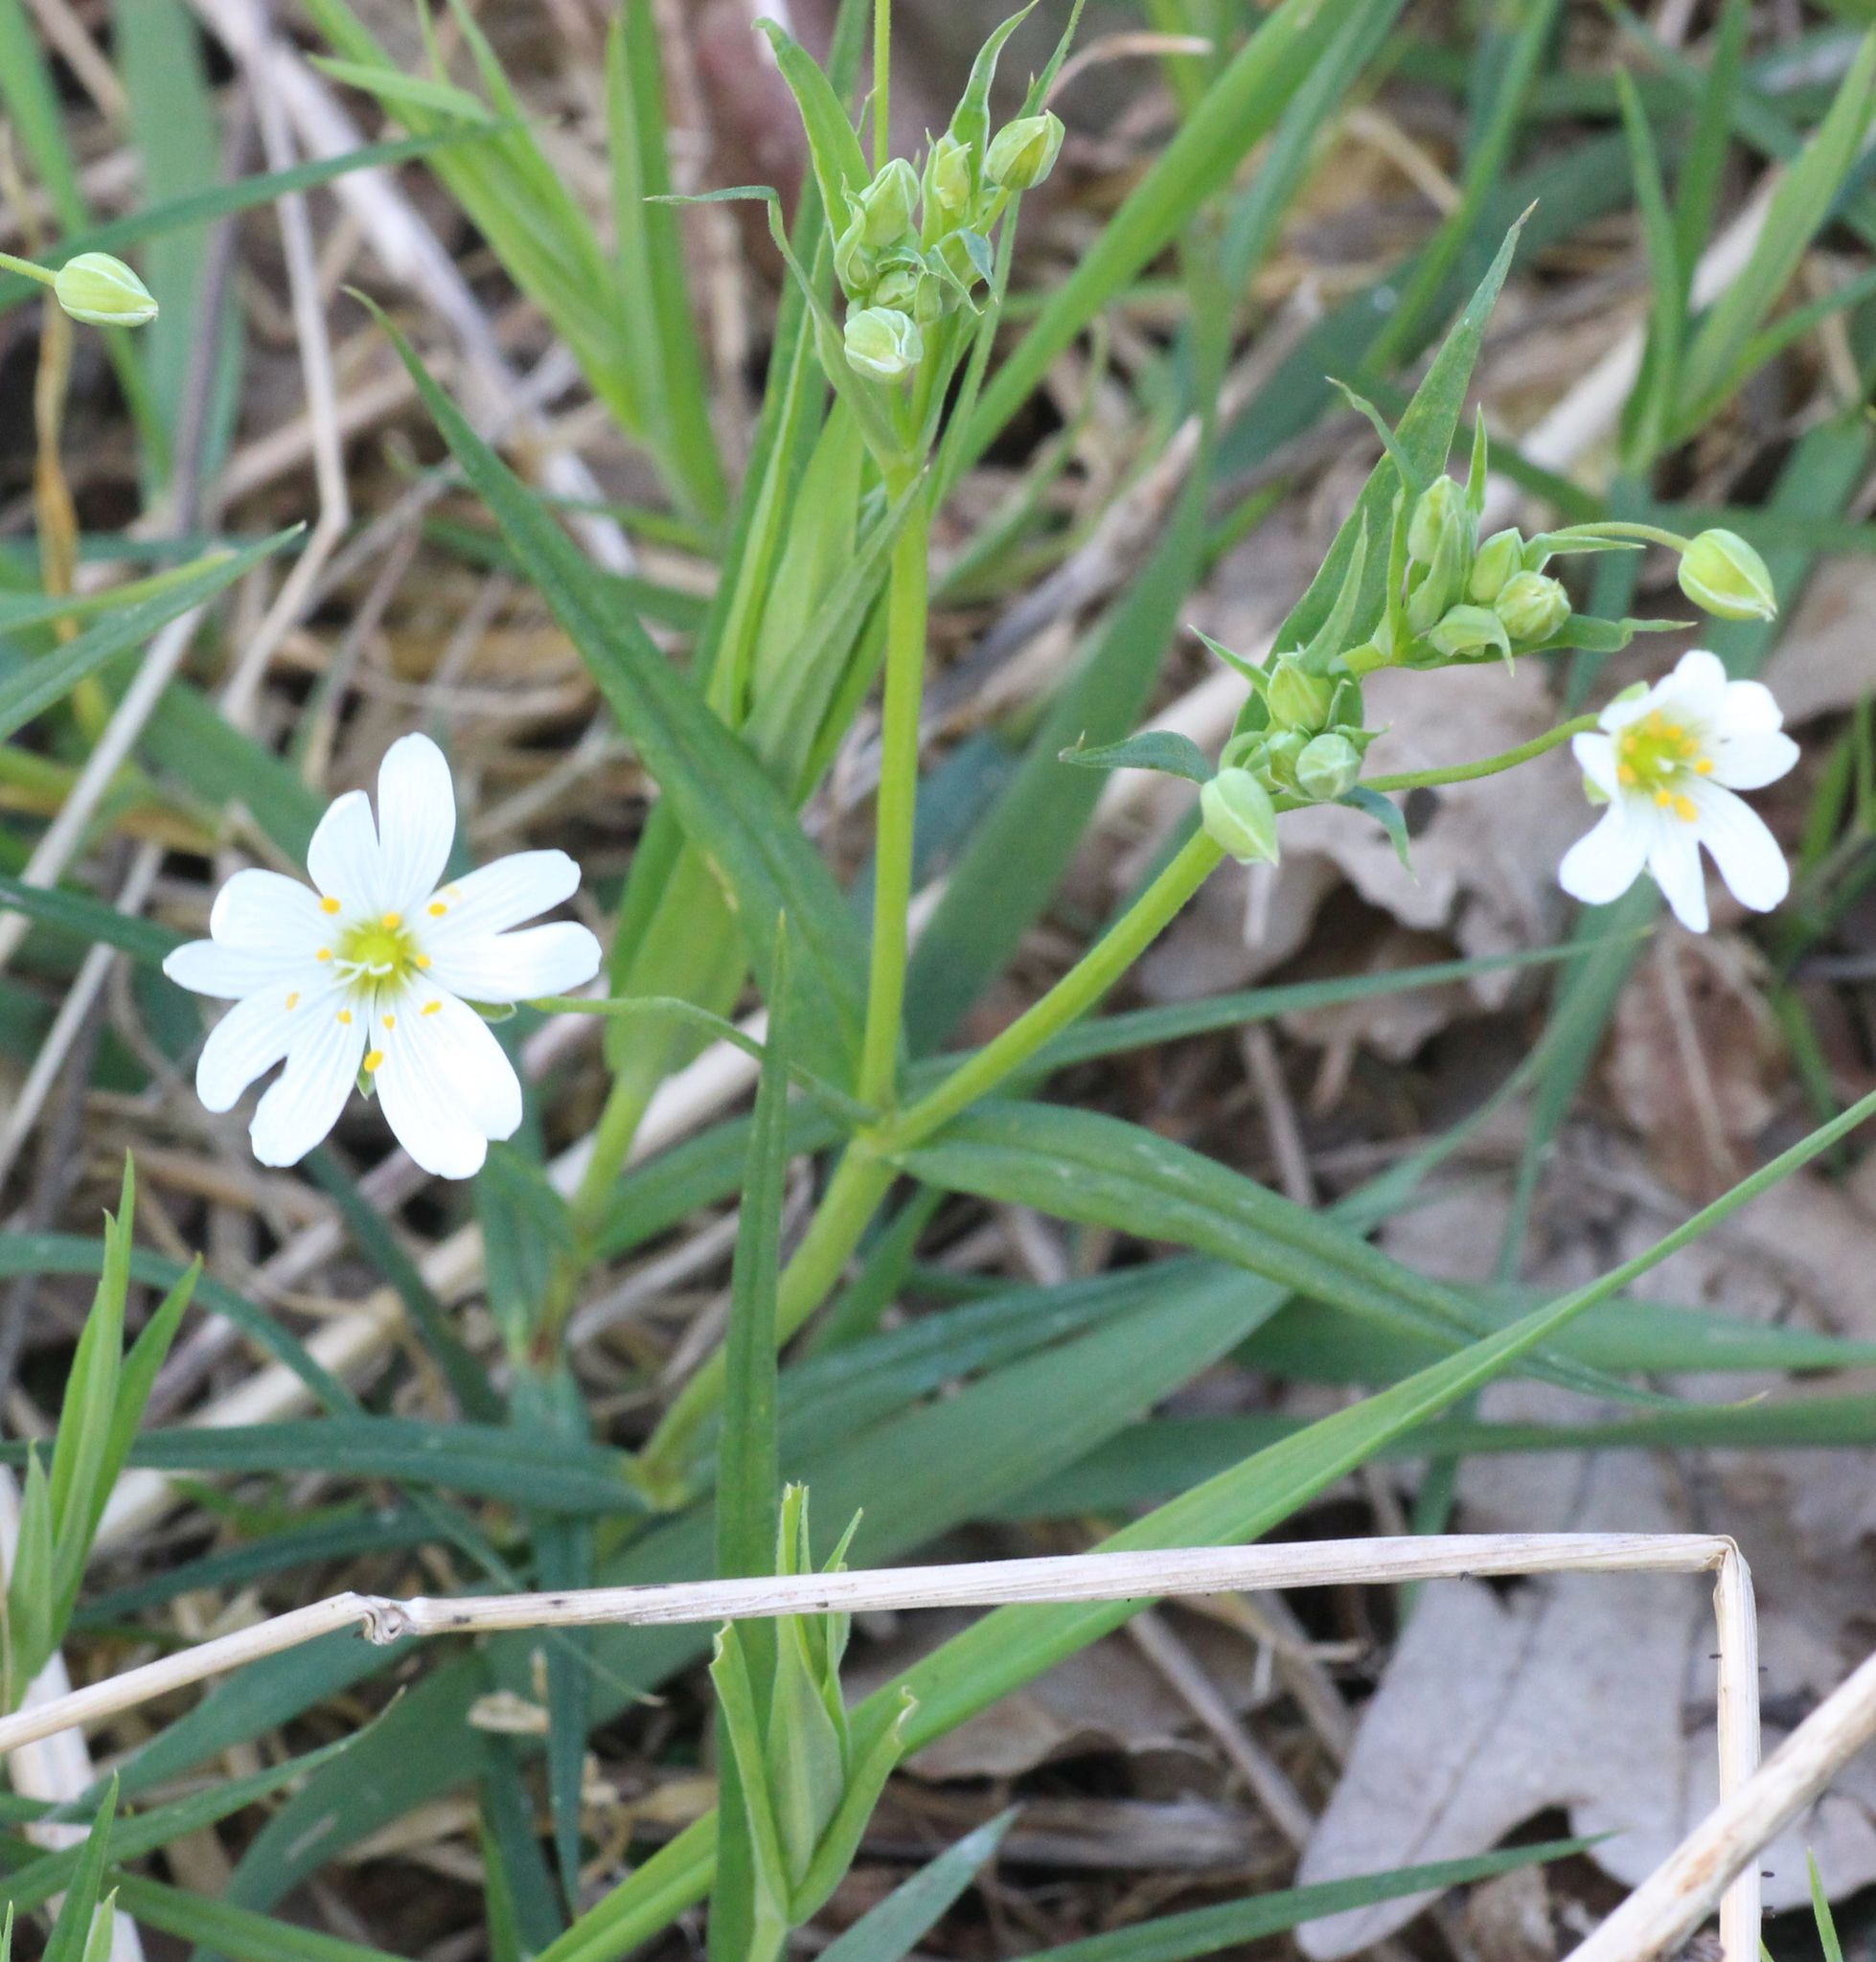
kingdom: Plantae
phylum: Tracheophyta
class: Magnoliopsida
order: Caryophyllales
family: Caryophyllaceae
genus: Rabelera
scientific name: Rabelera holostea
